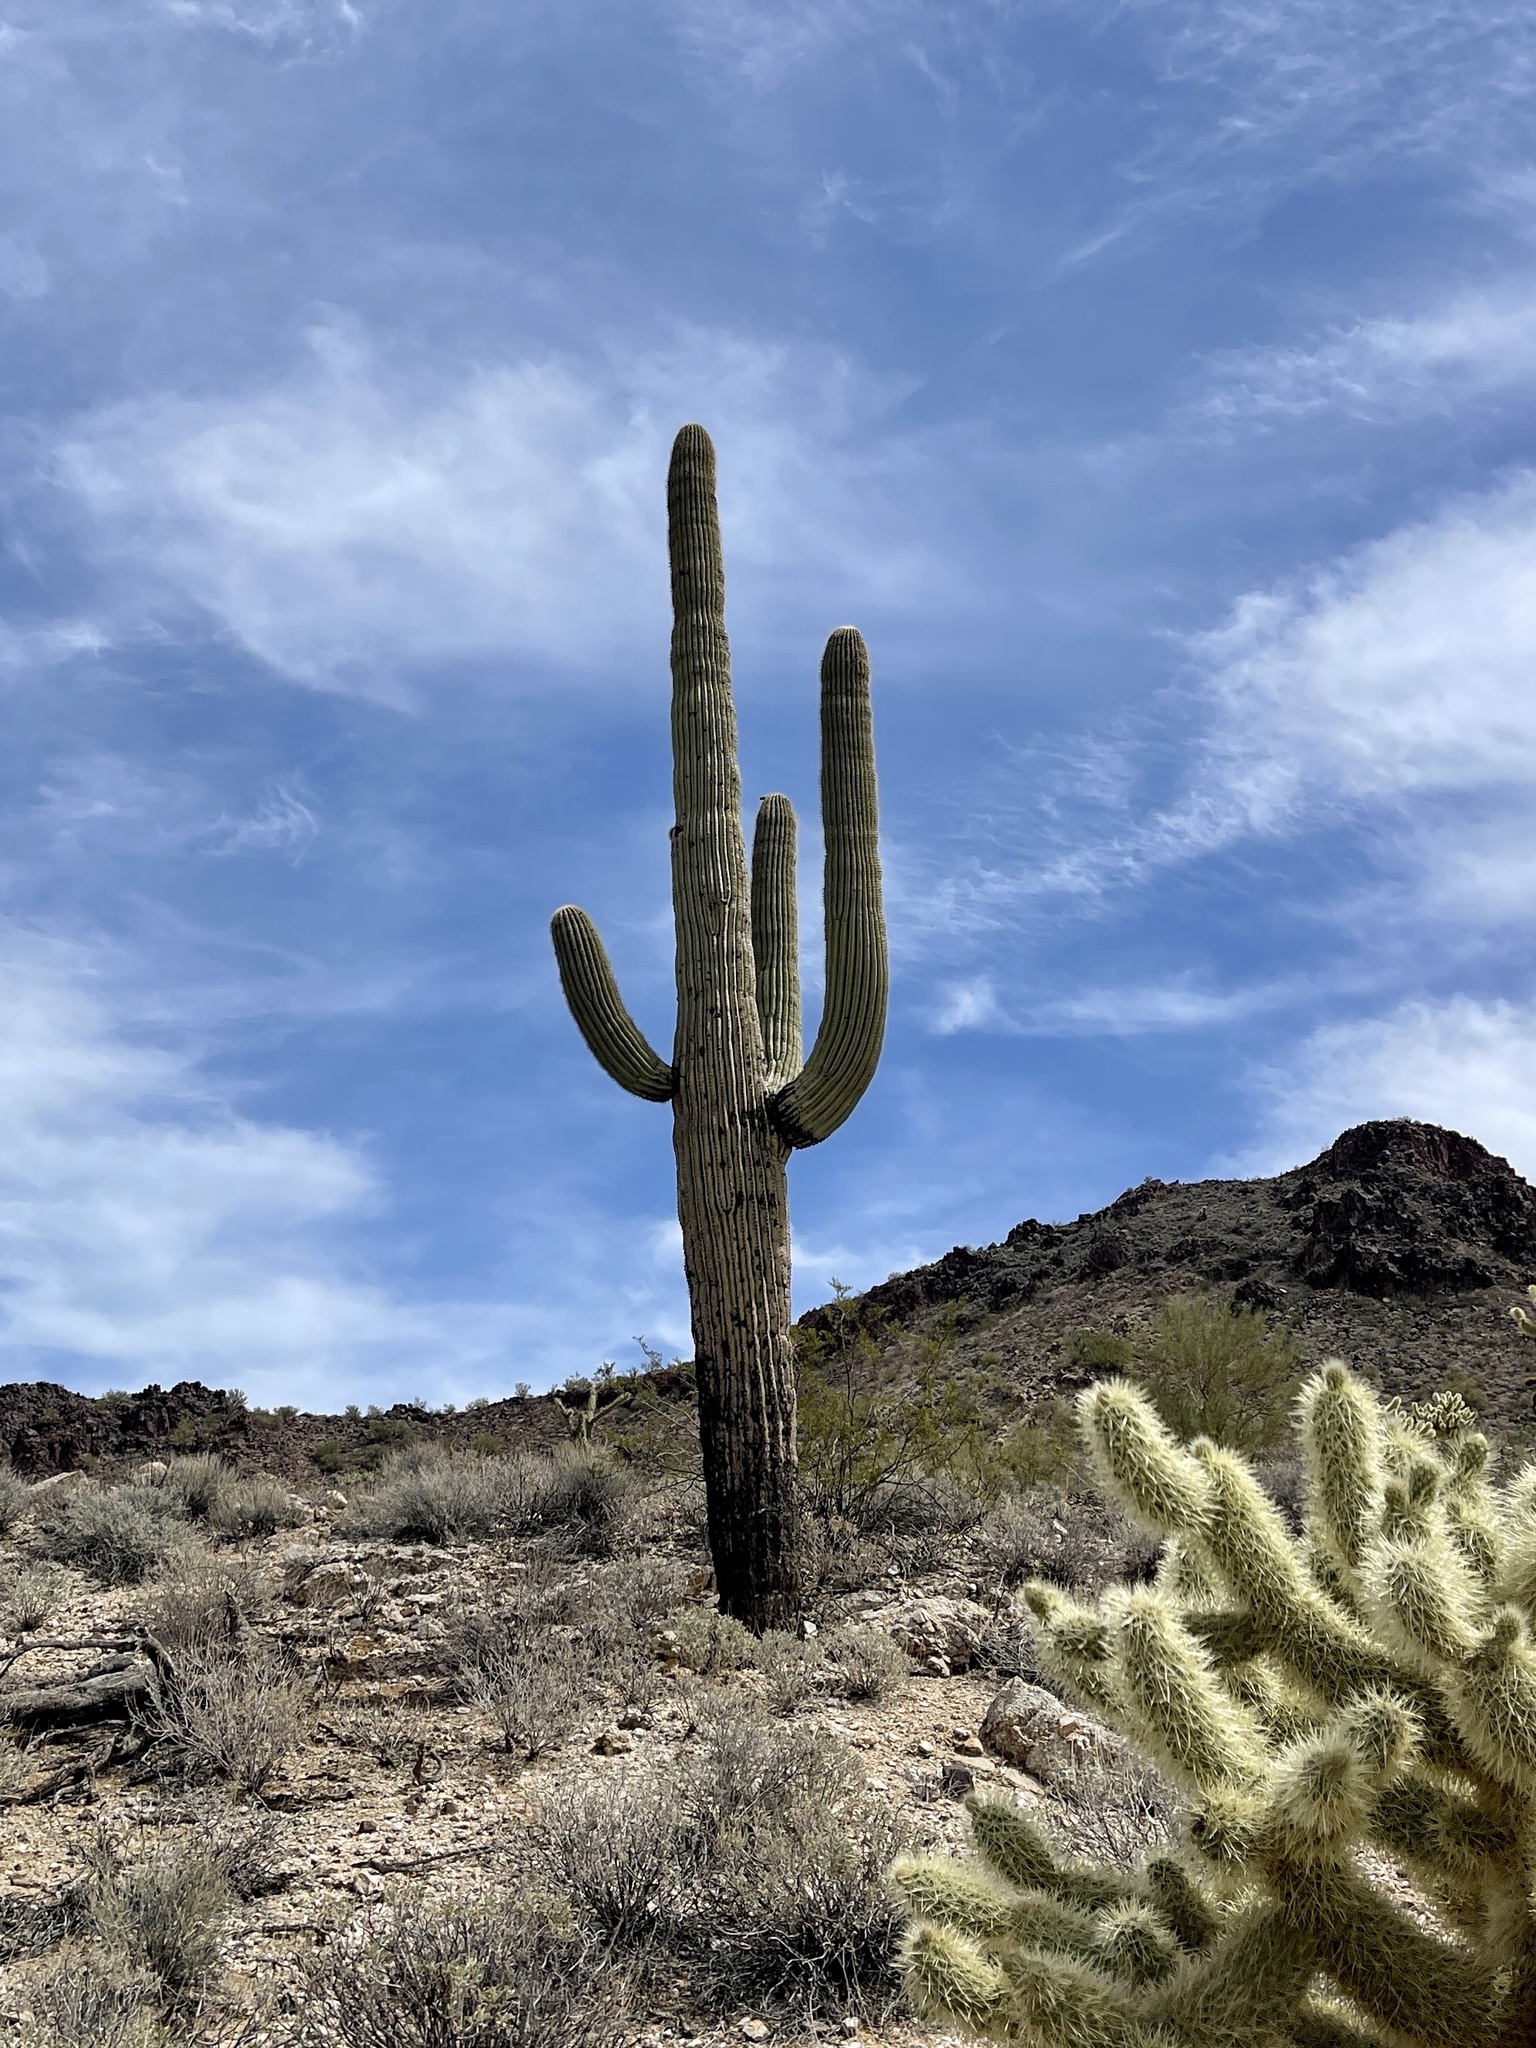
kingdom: Plantae
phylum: Tracheophyta
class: Magnoliopsida
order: Caryophyllales
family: Cactaceae
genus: Carnegiea
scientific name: Carnegiea gigantea
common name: Saguaro
